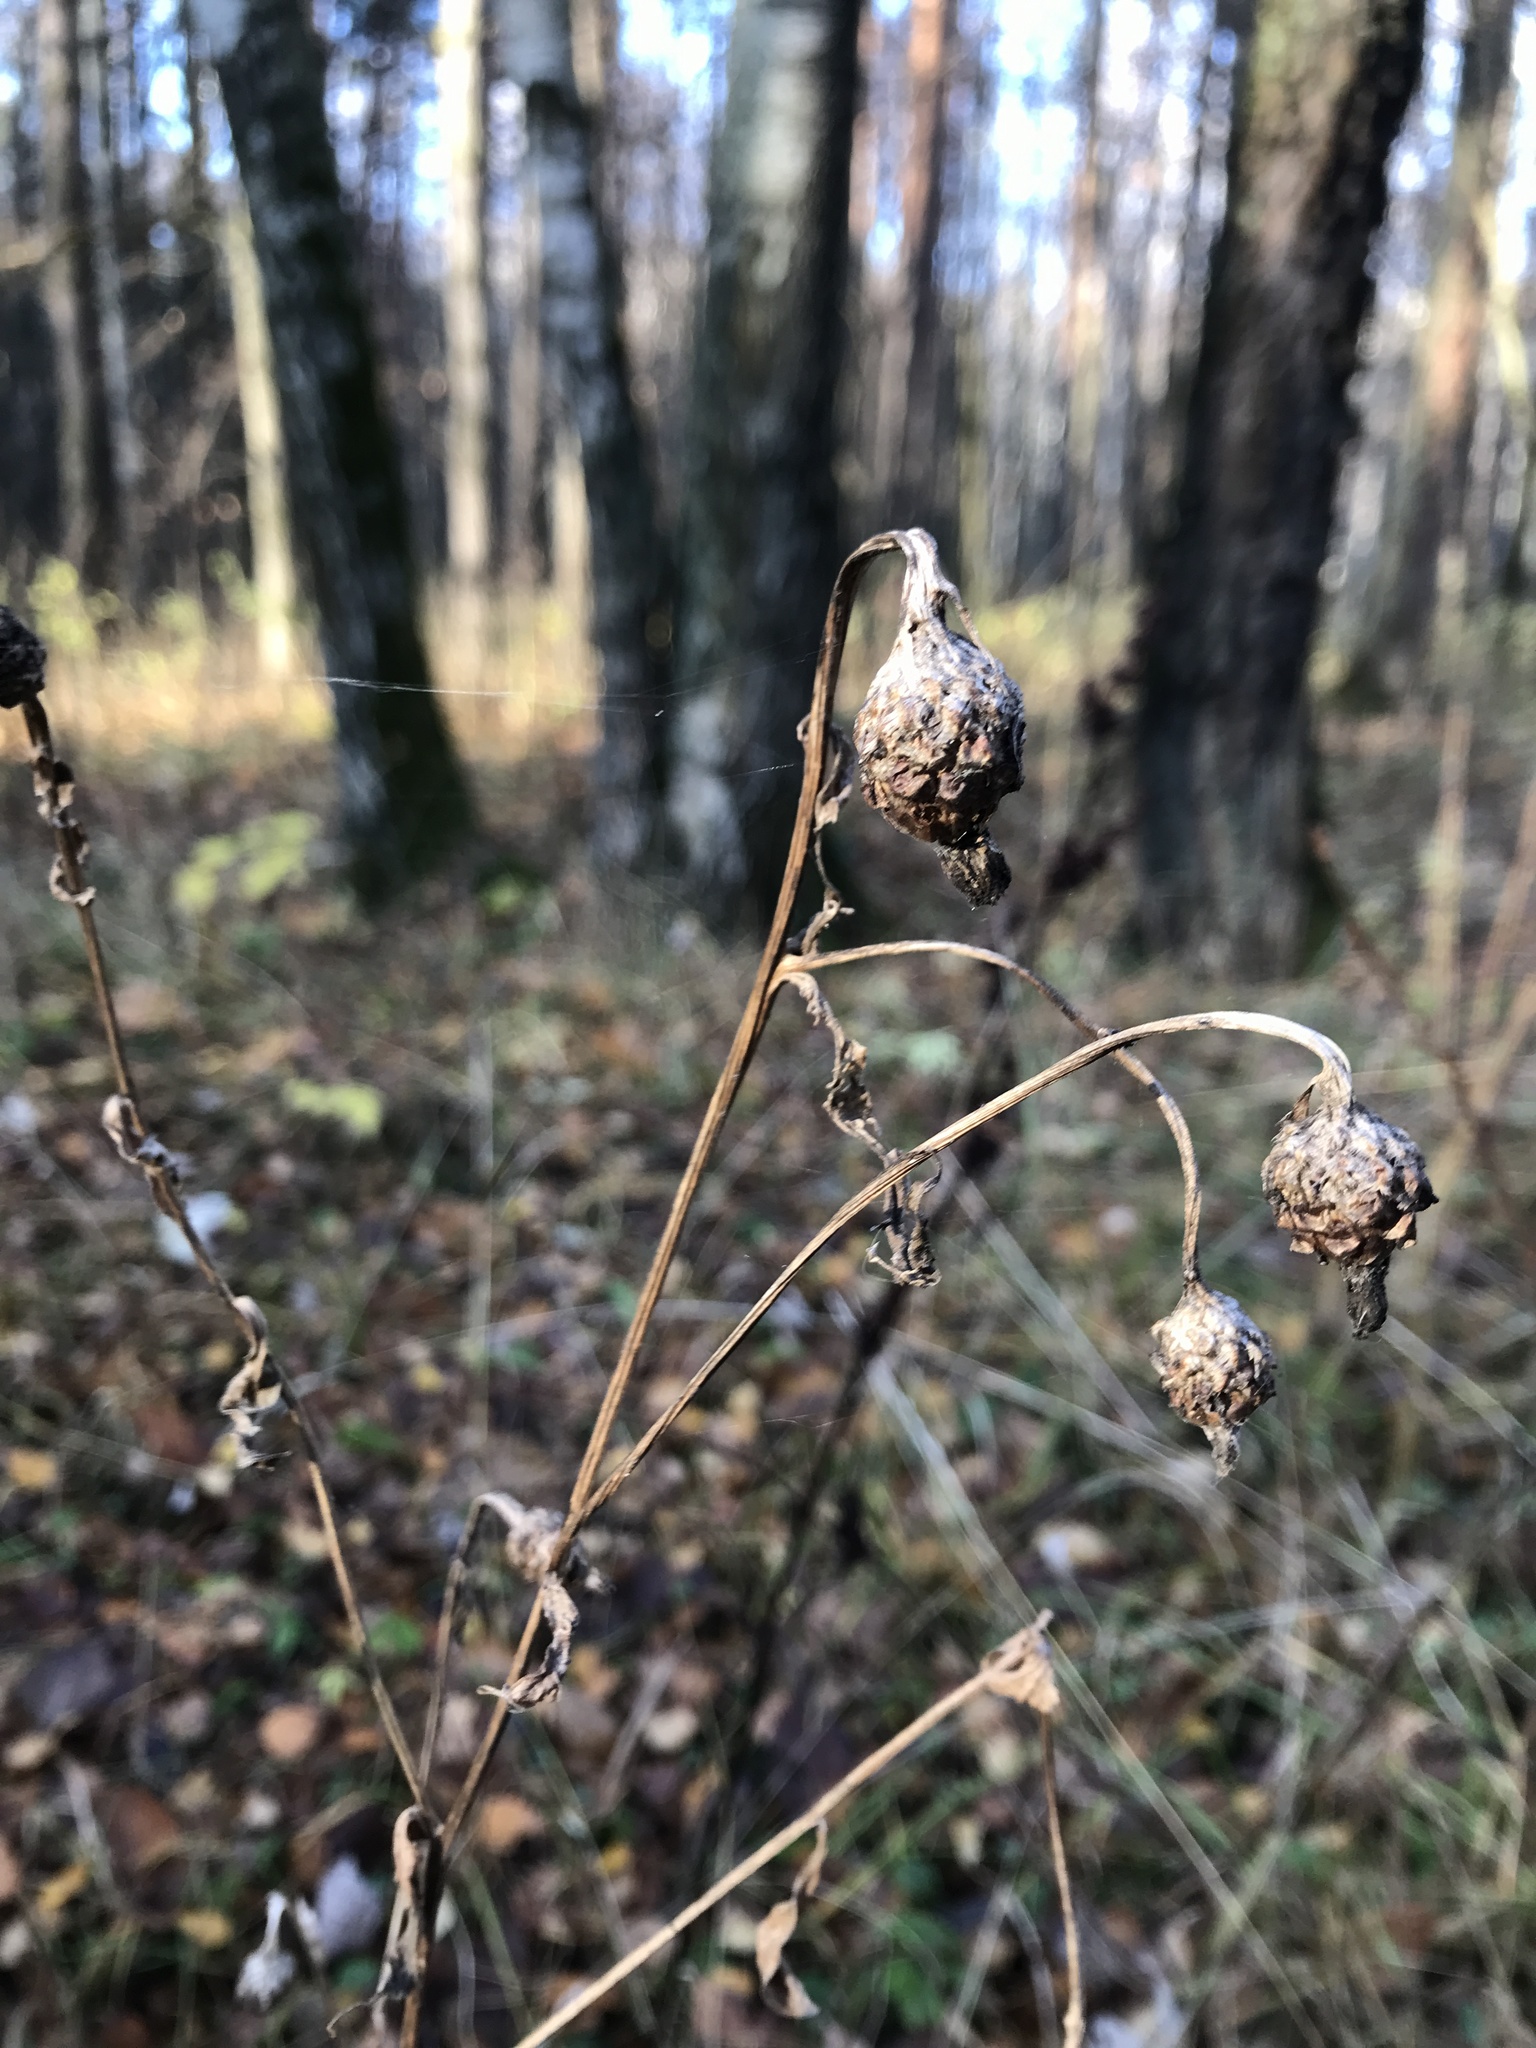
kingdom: Plantae
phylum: Tracheophyta
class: Magnoliopsida
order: Asterales
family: Asteraceae
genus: Centaurea
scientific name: Centaurea jacea
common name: Brown knapweed
